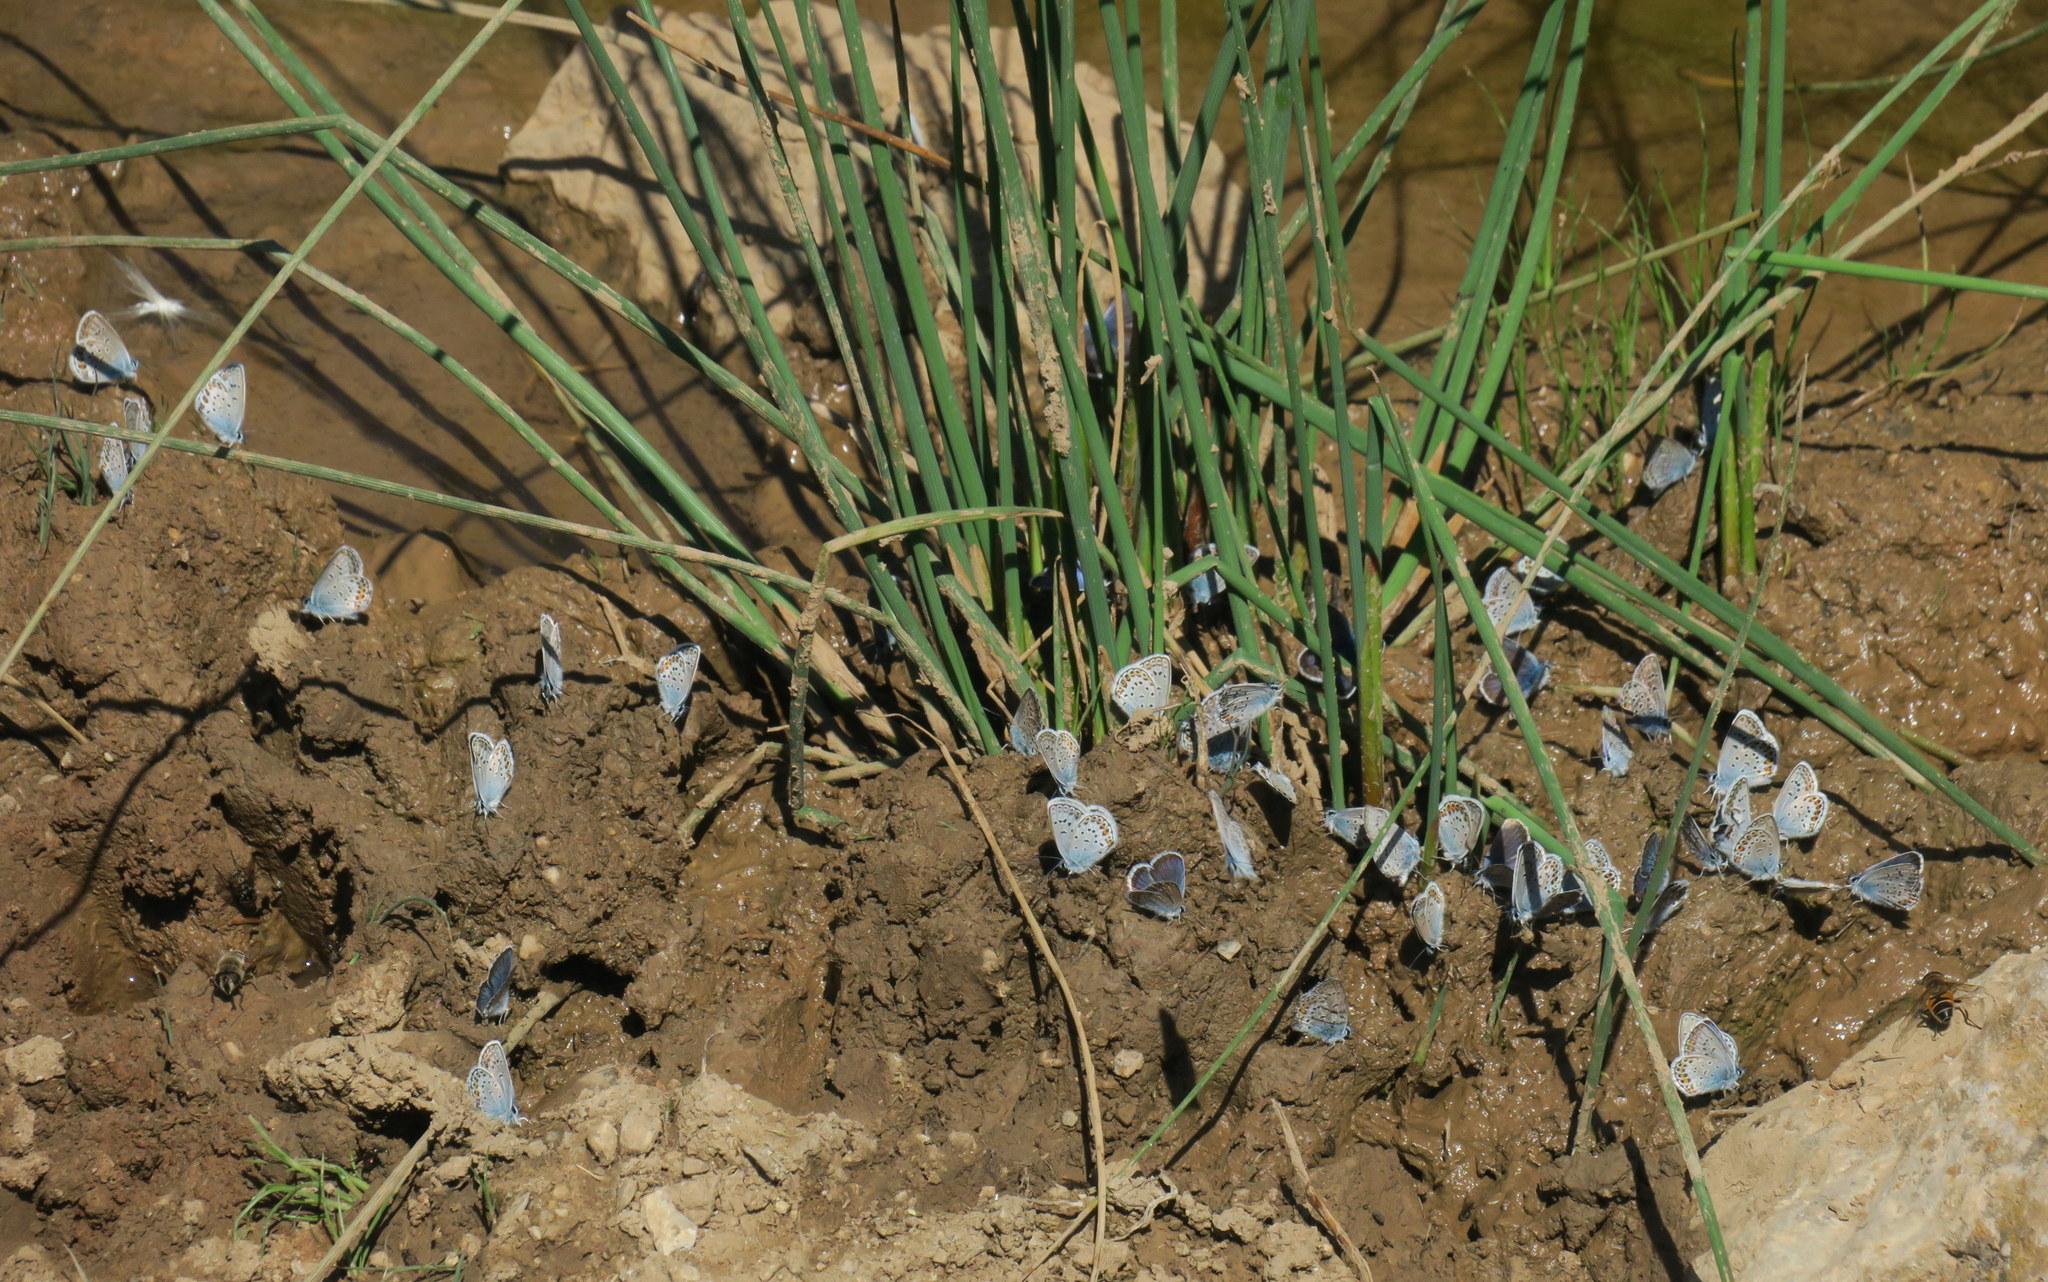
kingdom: Animalia
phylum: Arthropoda
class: Insecta
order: Lepidoptera
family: Lycaenidae
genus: Plebejus
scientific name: Plebejus argus
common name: Silver-studded blue
